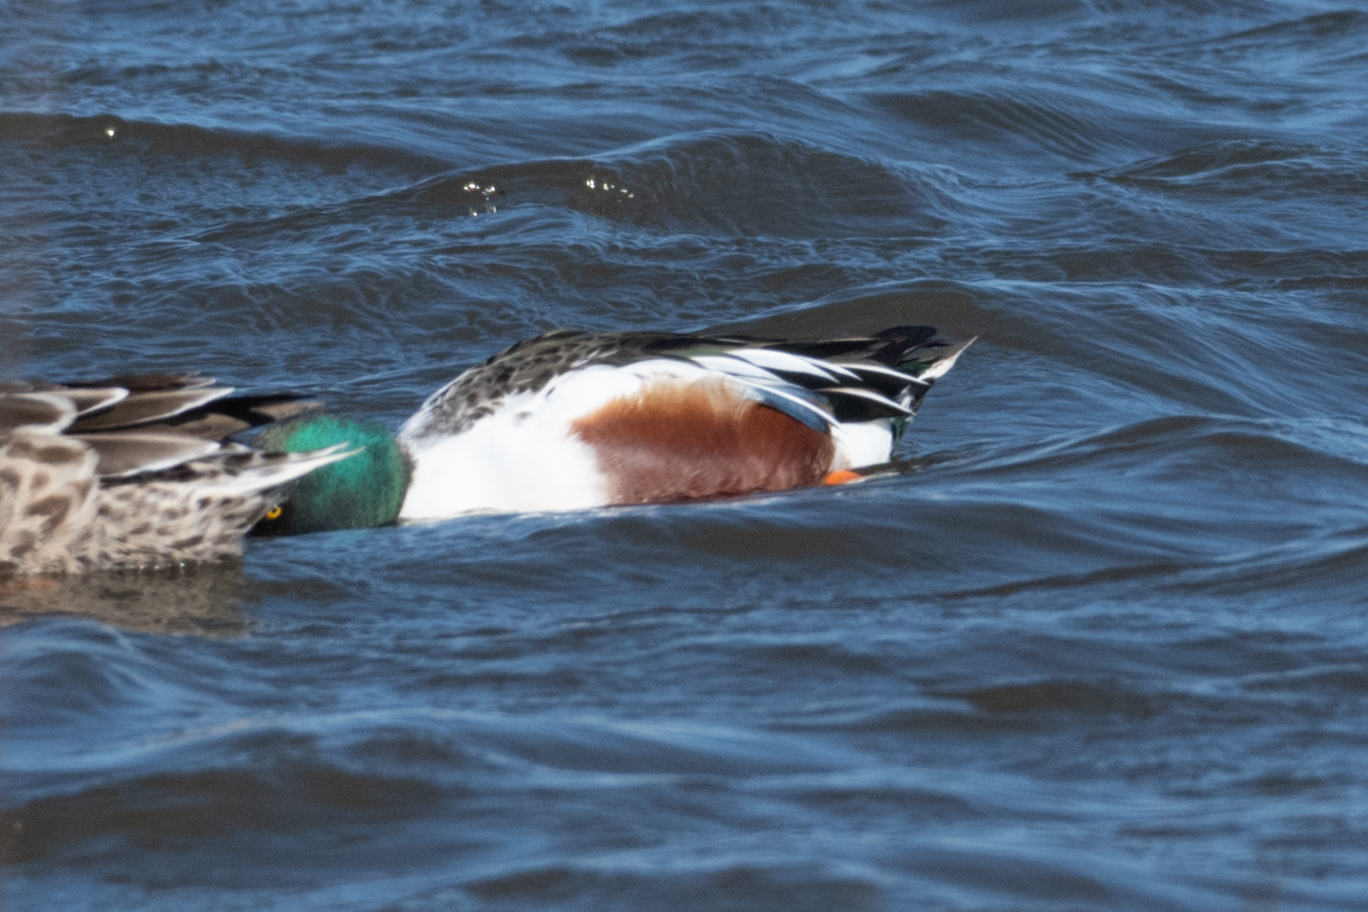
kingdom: Animalia
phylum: Chordata
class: Aves
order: Anseriformes
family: Anatidae
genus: Spatula
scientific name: Spatula clypeata
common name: Northern shoveler
